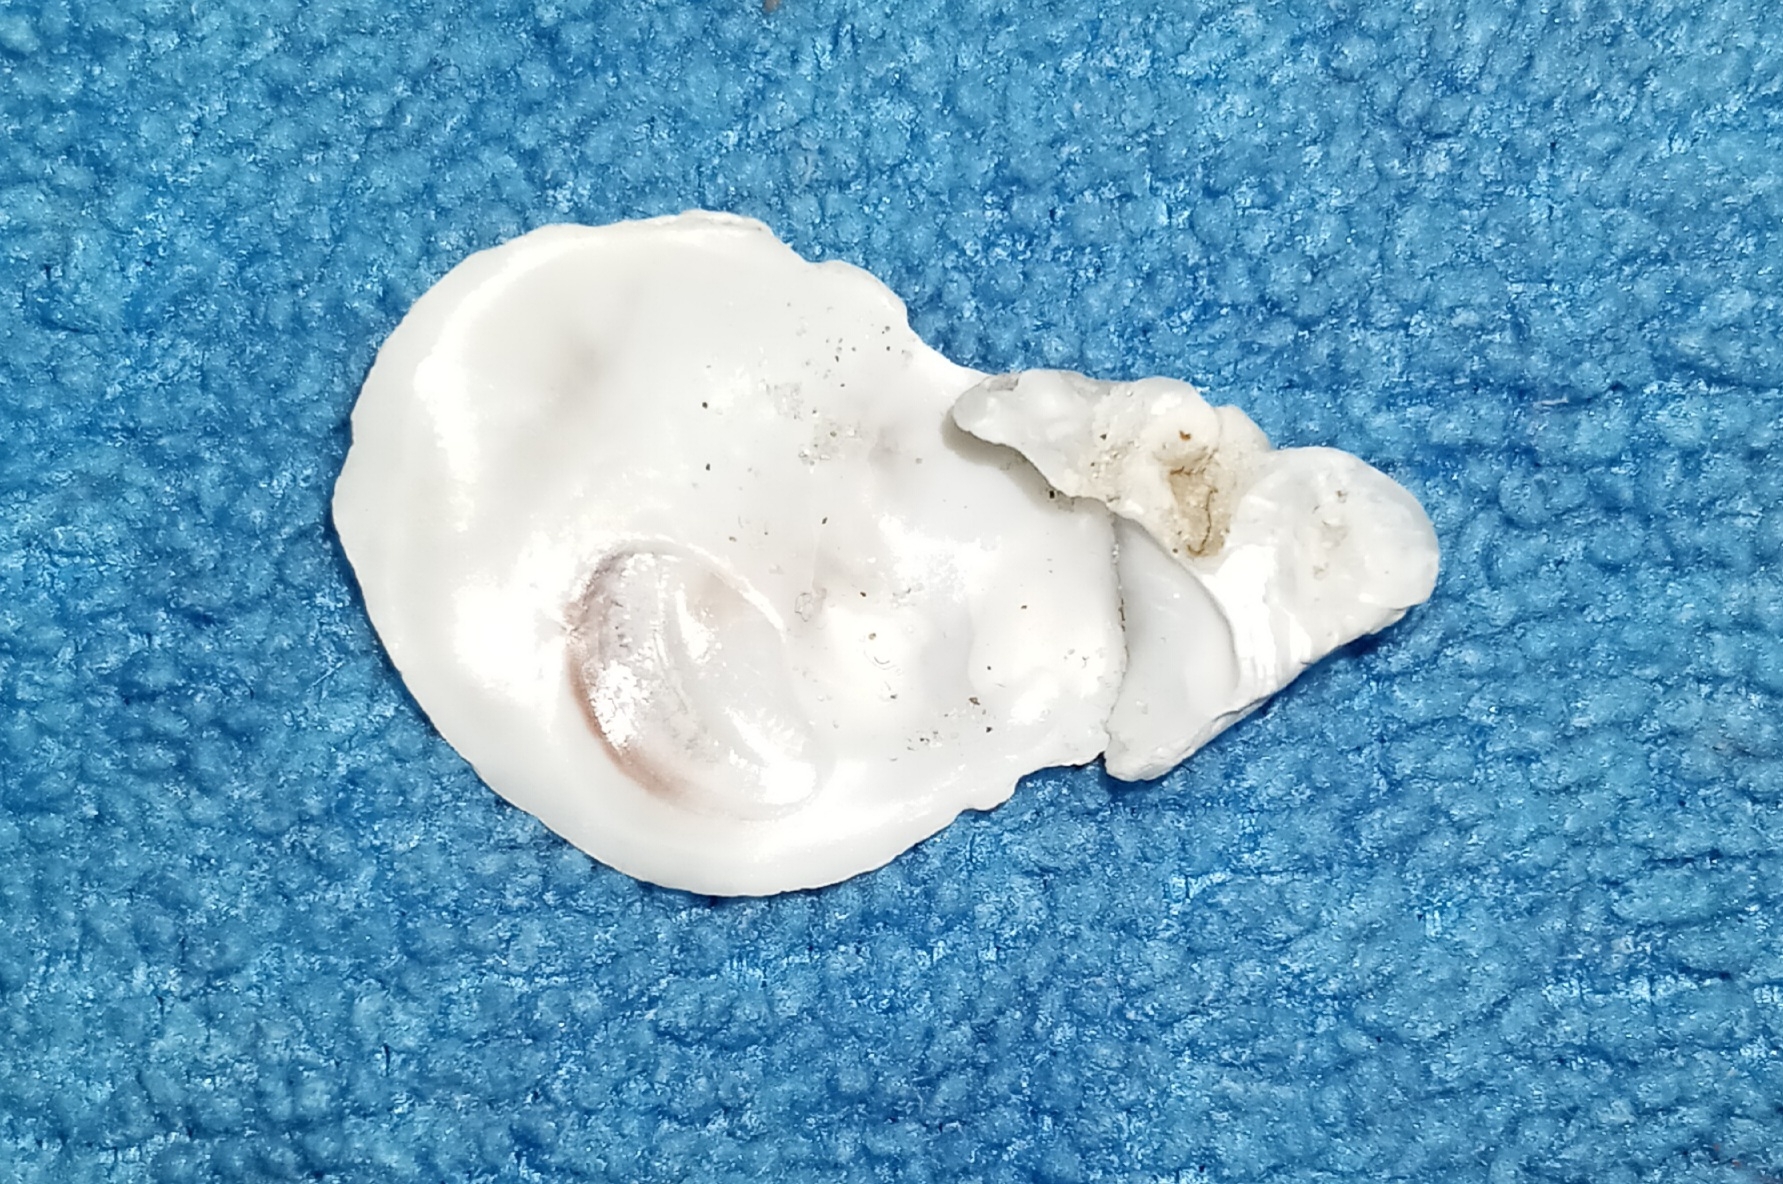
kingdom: Animalia
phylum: Mollusca
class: Bivalvia
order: Ostreida
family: Ostreidae
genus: Crassostrea
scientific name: Crassostrea virginica
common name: American oyster
